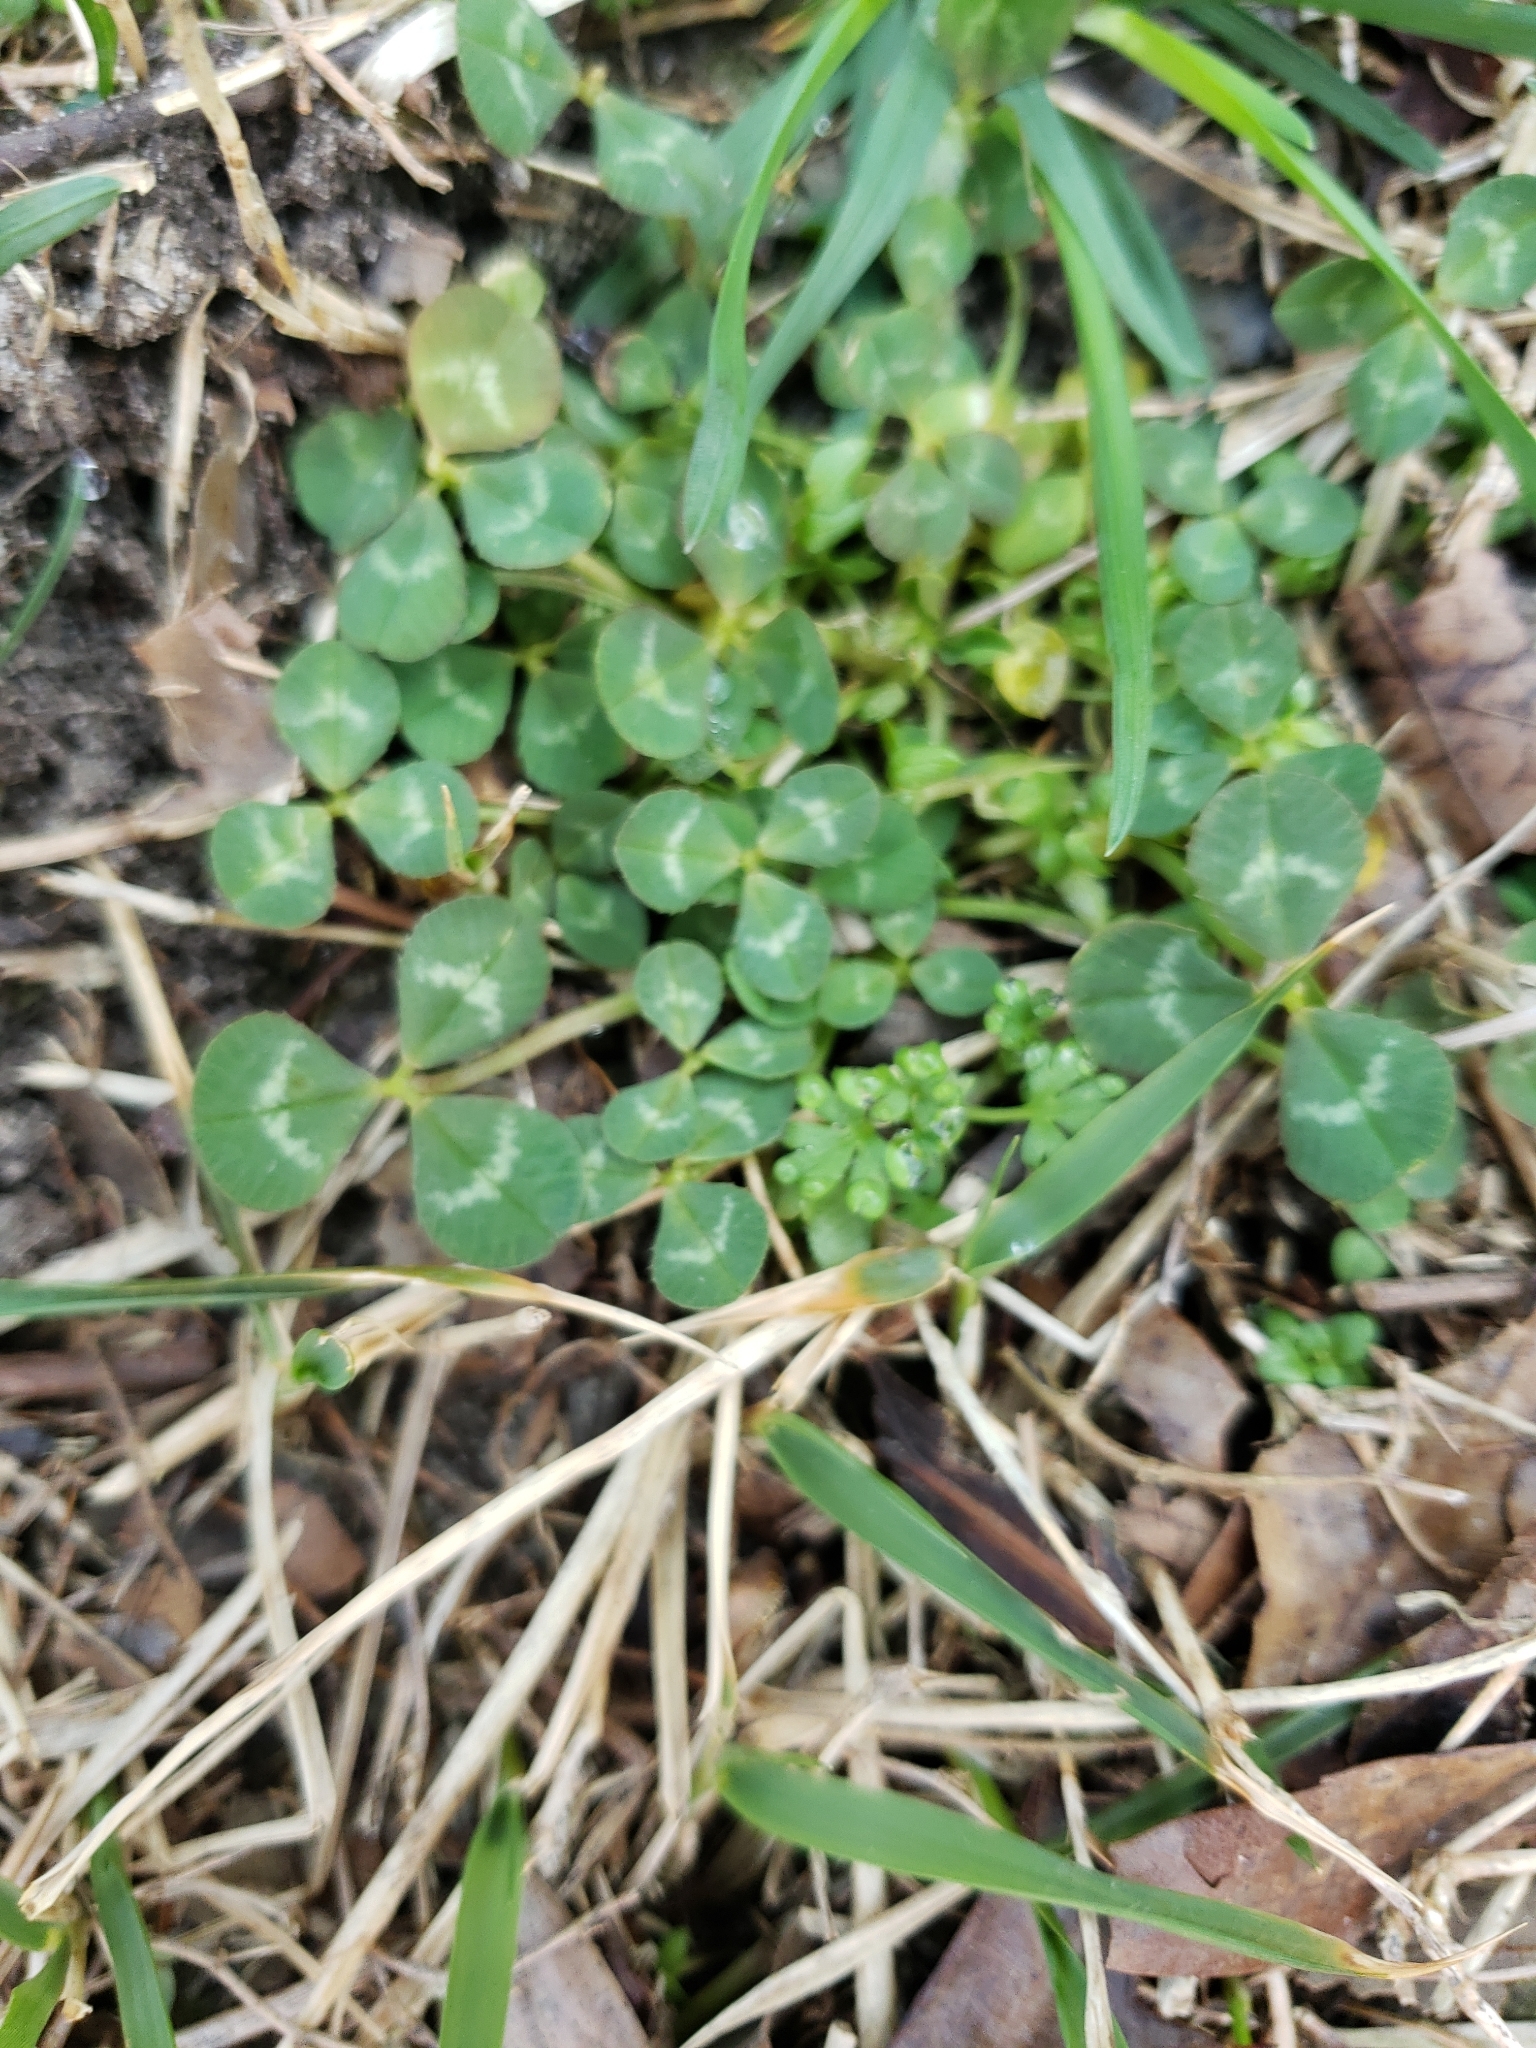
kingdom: Plantae
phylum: Tracheophyta
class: Magnoliopsida
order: Fabales
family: Fabaceae
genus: Trifolium
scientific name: Trifolium repens
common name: White clover
